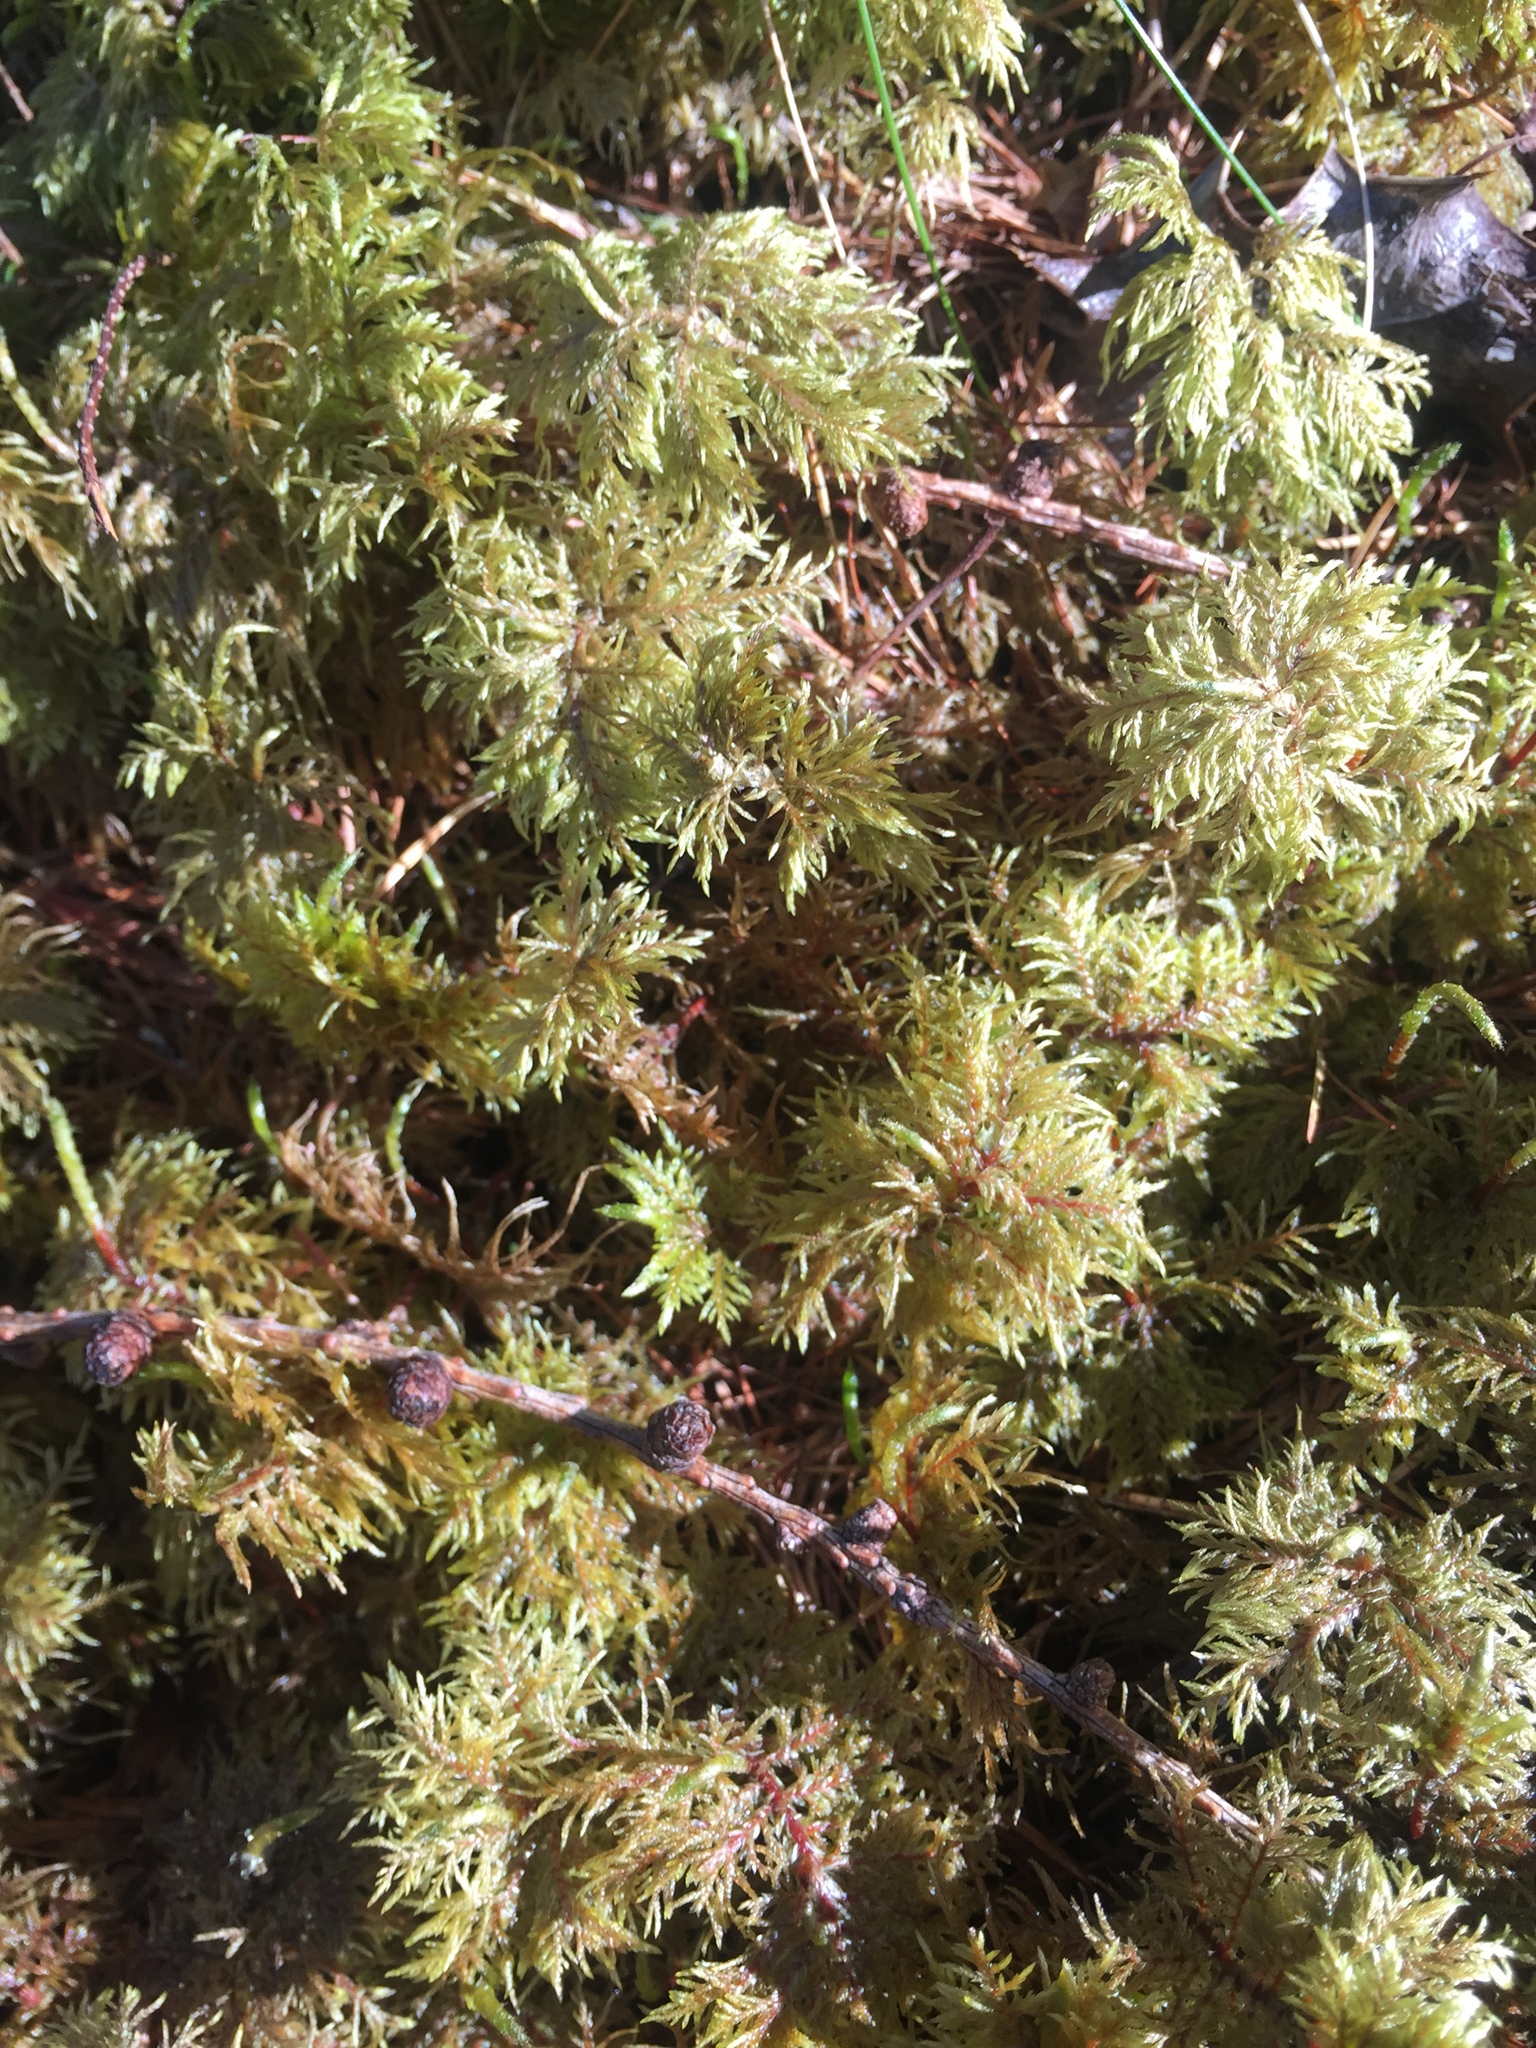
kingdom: Plantae
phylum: Bryophyta
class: Bryopsida
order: Hypnales
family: Hylocomiaceae
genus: Hylocomium
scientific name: Hylocomium splendens
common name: Stairstep moss
